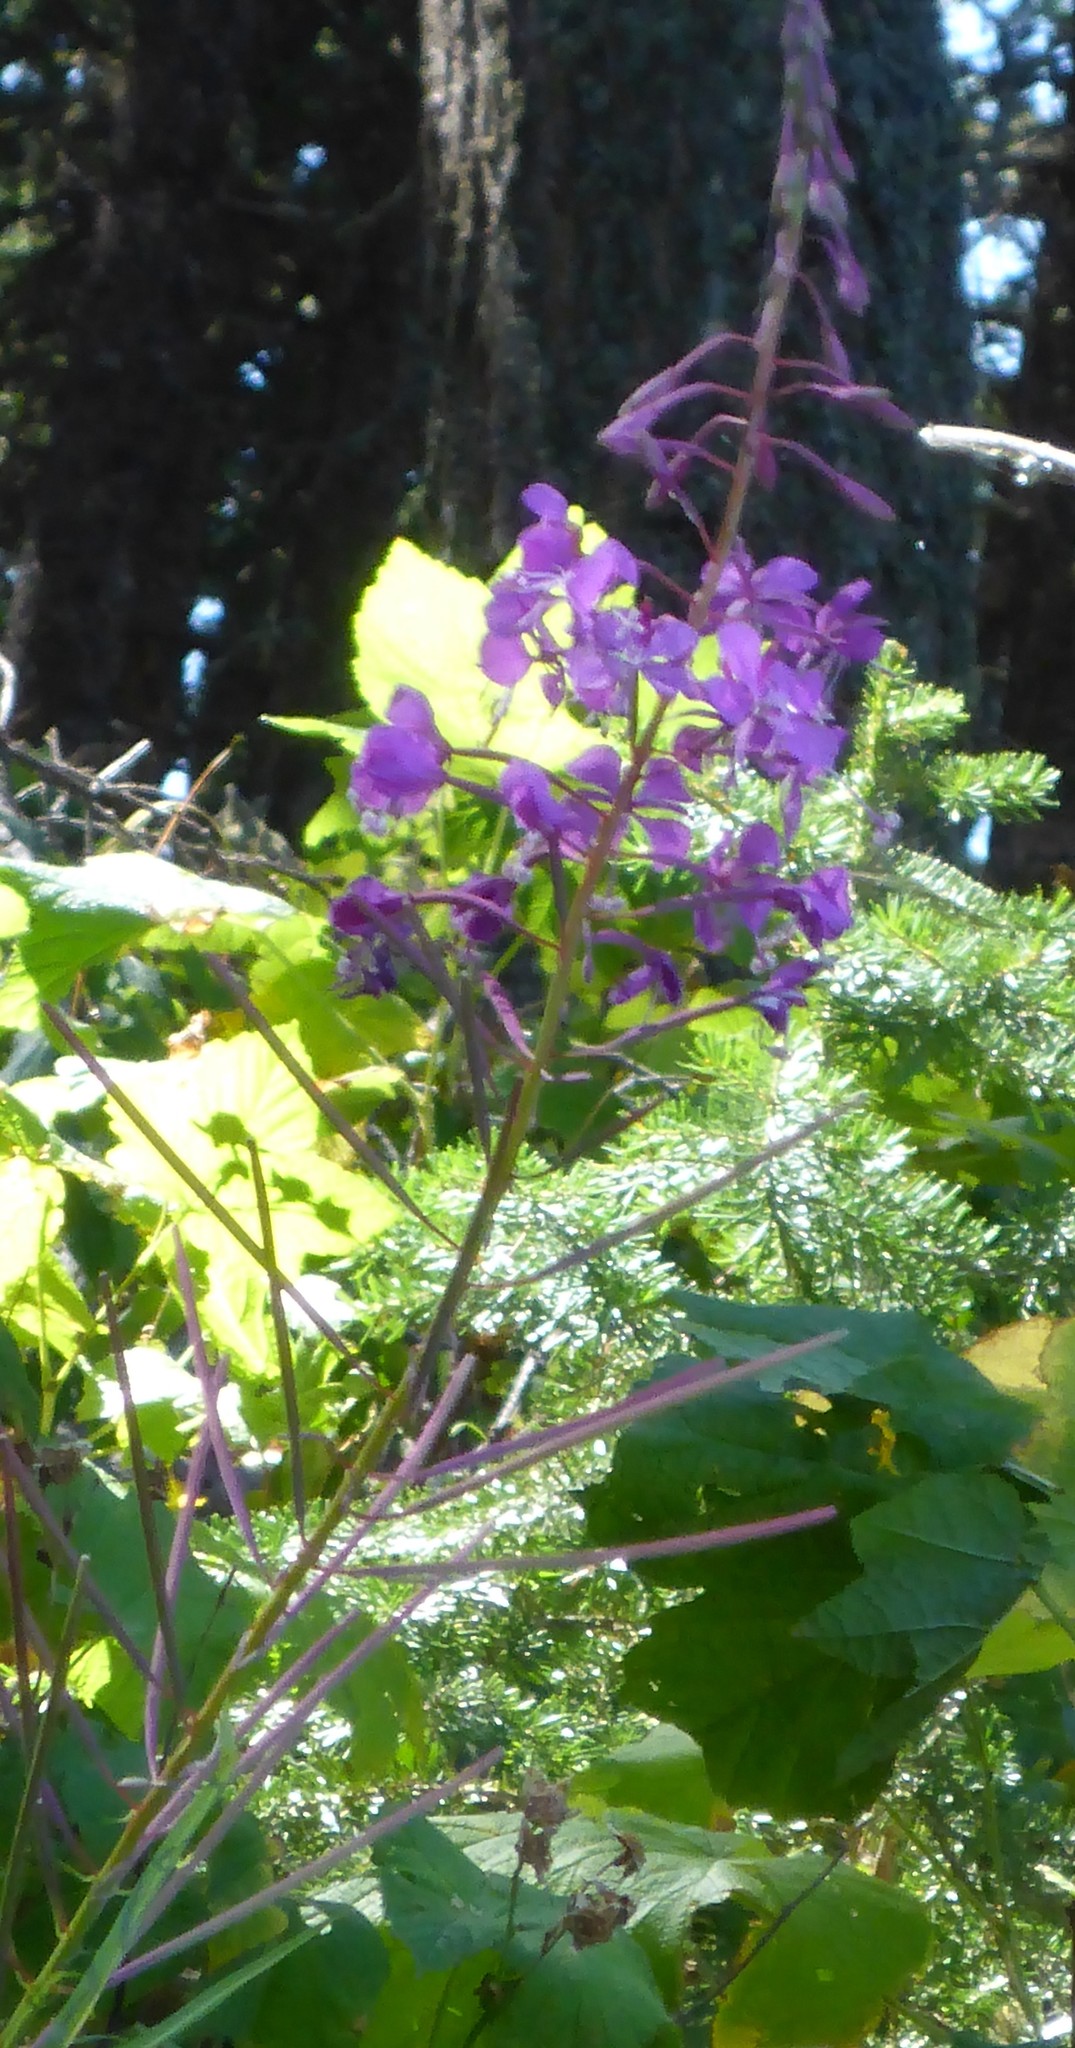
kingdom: Plantae
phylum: Tracheophyta
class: Magnoliopsida
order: Myrtales
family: Onagraceae
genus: Chamaenerion
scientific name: Chamaenerion angustifolium
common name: Fireweed
